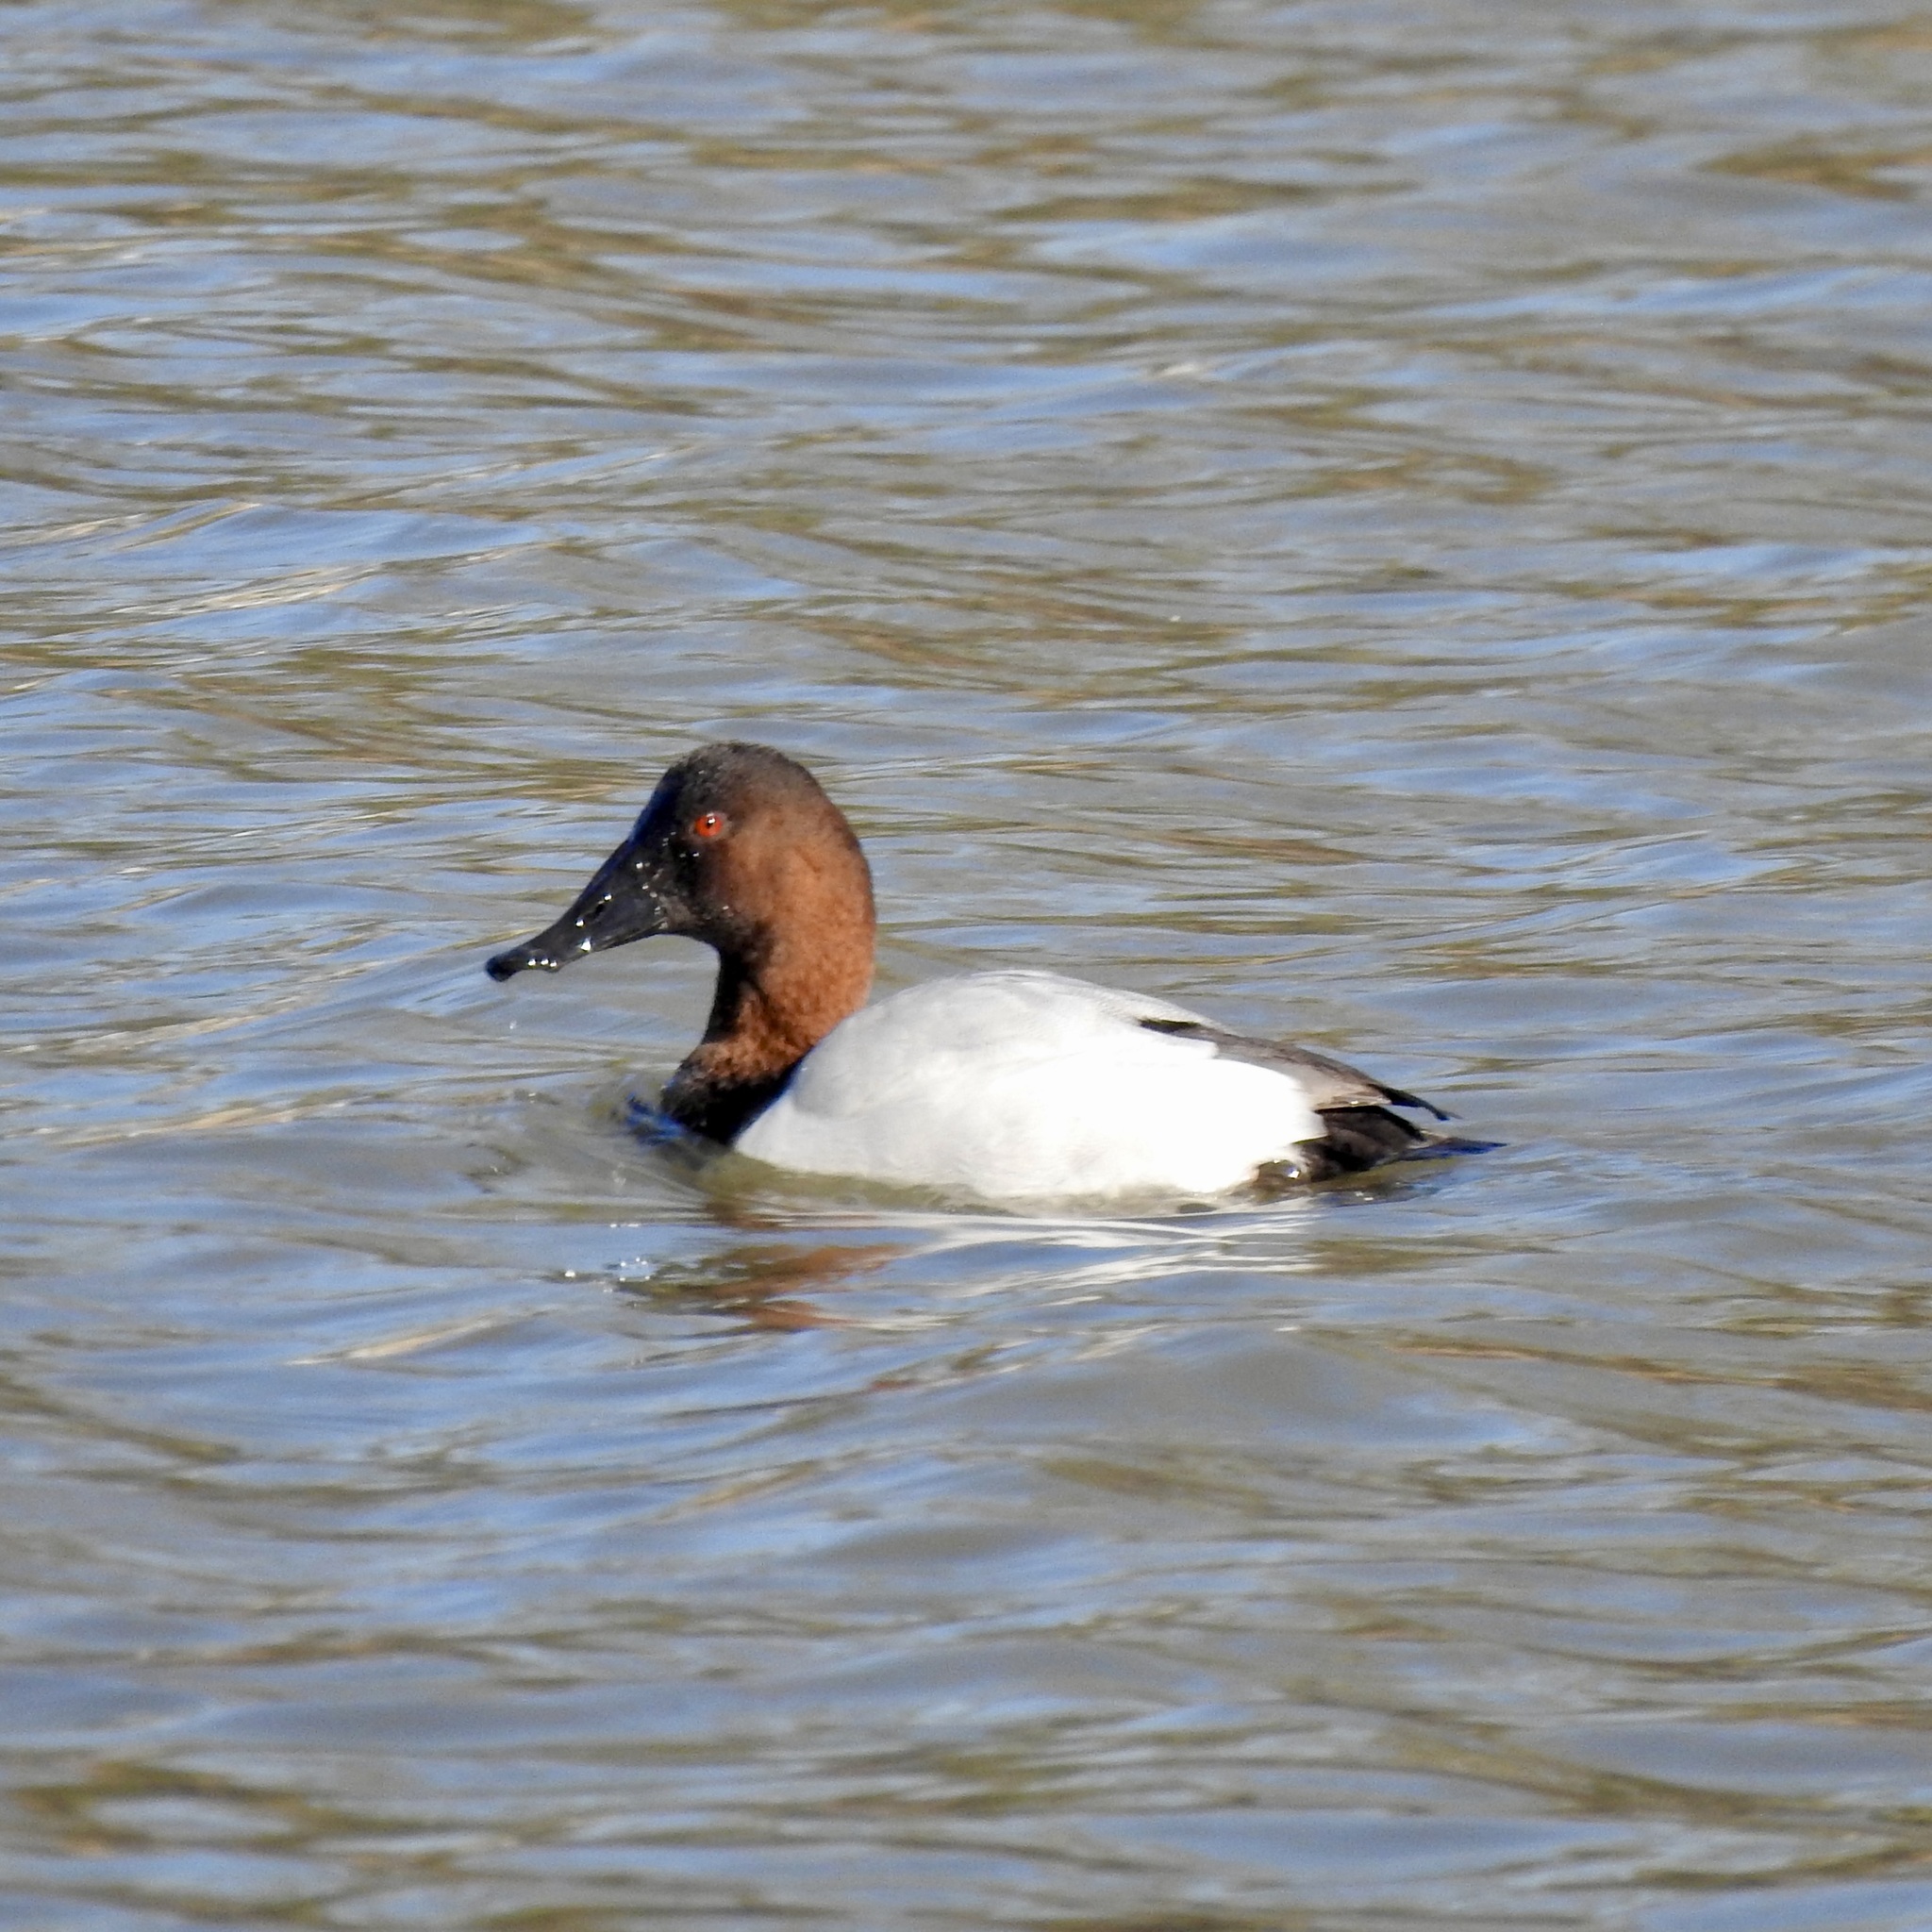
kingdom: Animalia
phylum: Chordata
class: Aves
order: Anseriformes
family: Anatidae
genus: Aythya
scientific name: Aythya valisineria
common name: Canvasback
